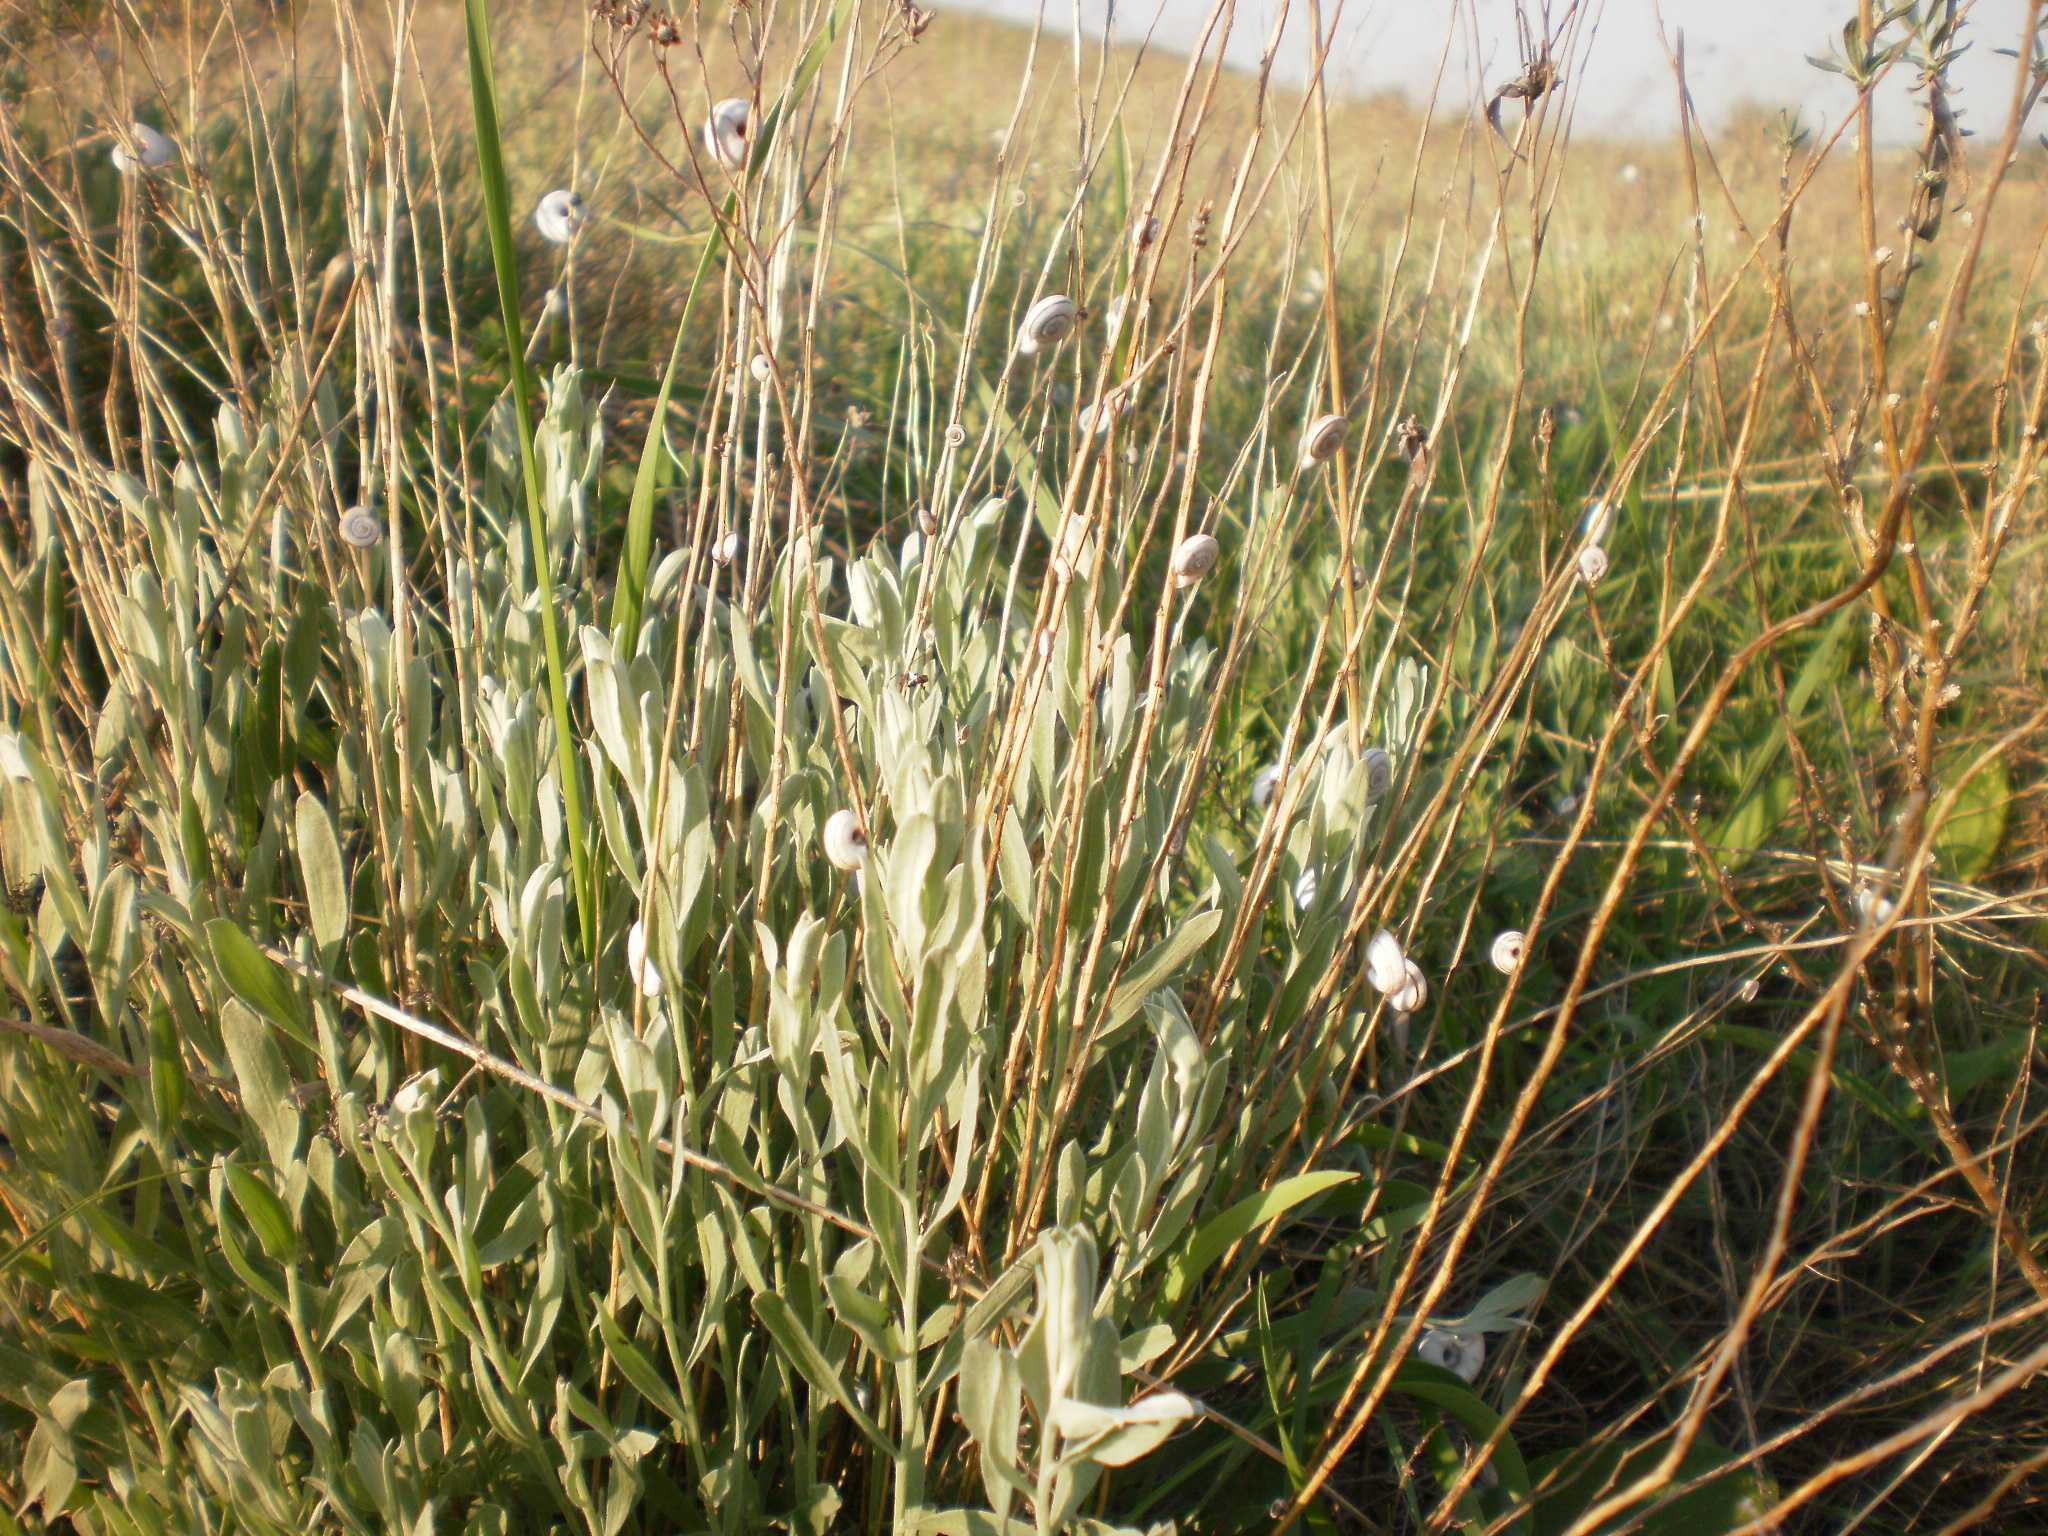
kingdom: Plantae
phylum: Tracheophyta
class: Magnoliopsida
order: Asterales
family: Asteraceae
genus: Galatella
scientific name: Galatella villosa
